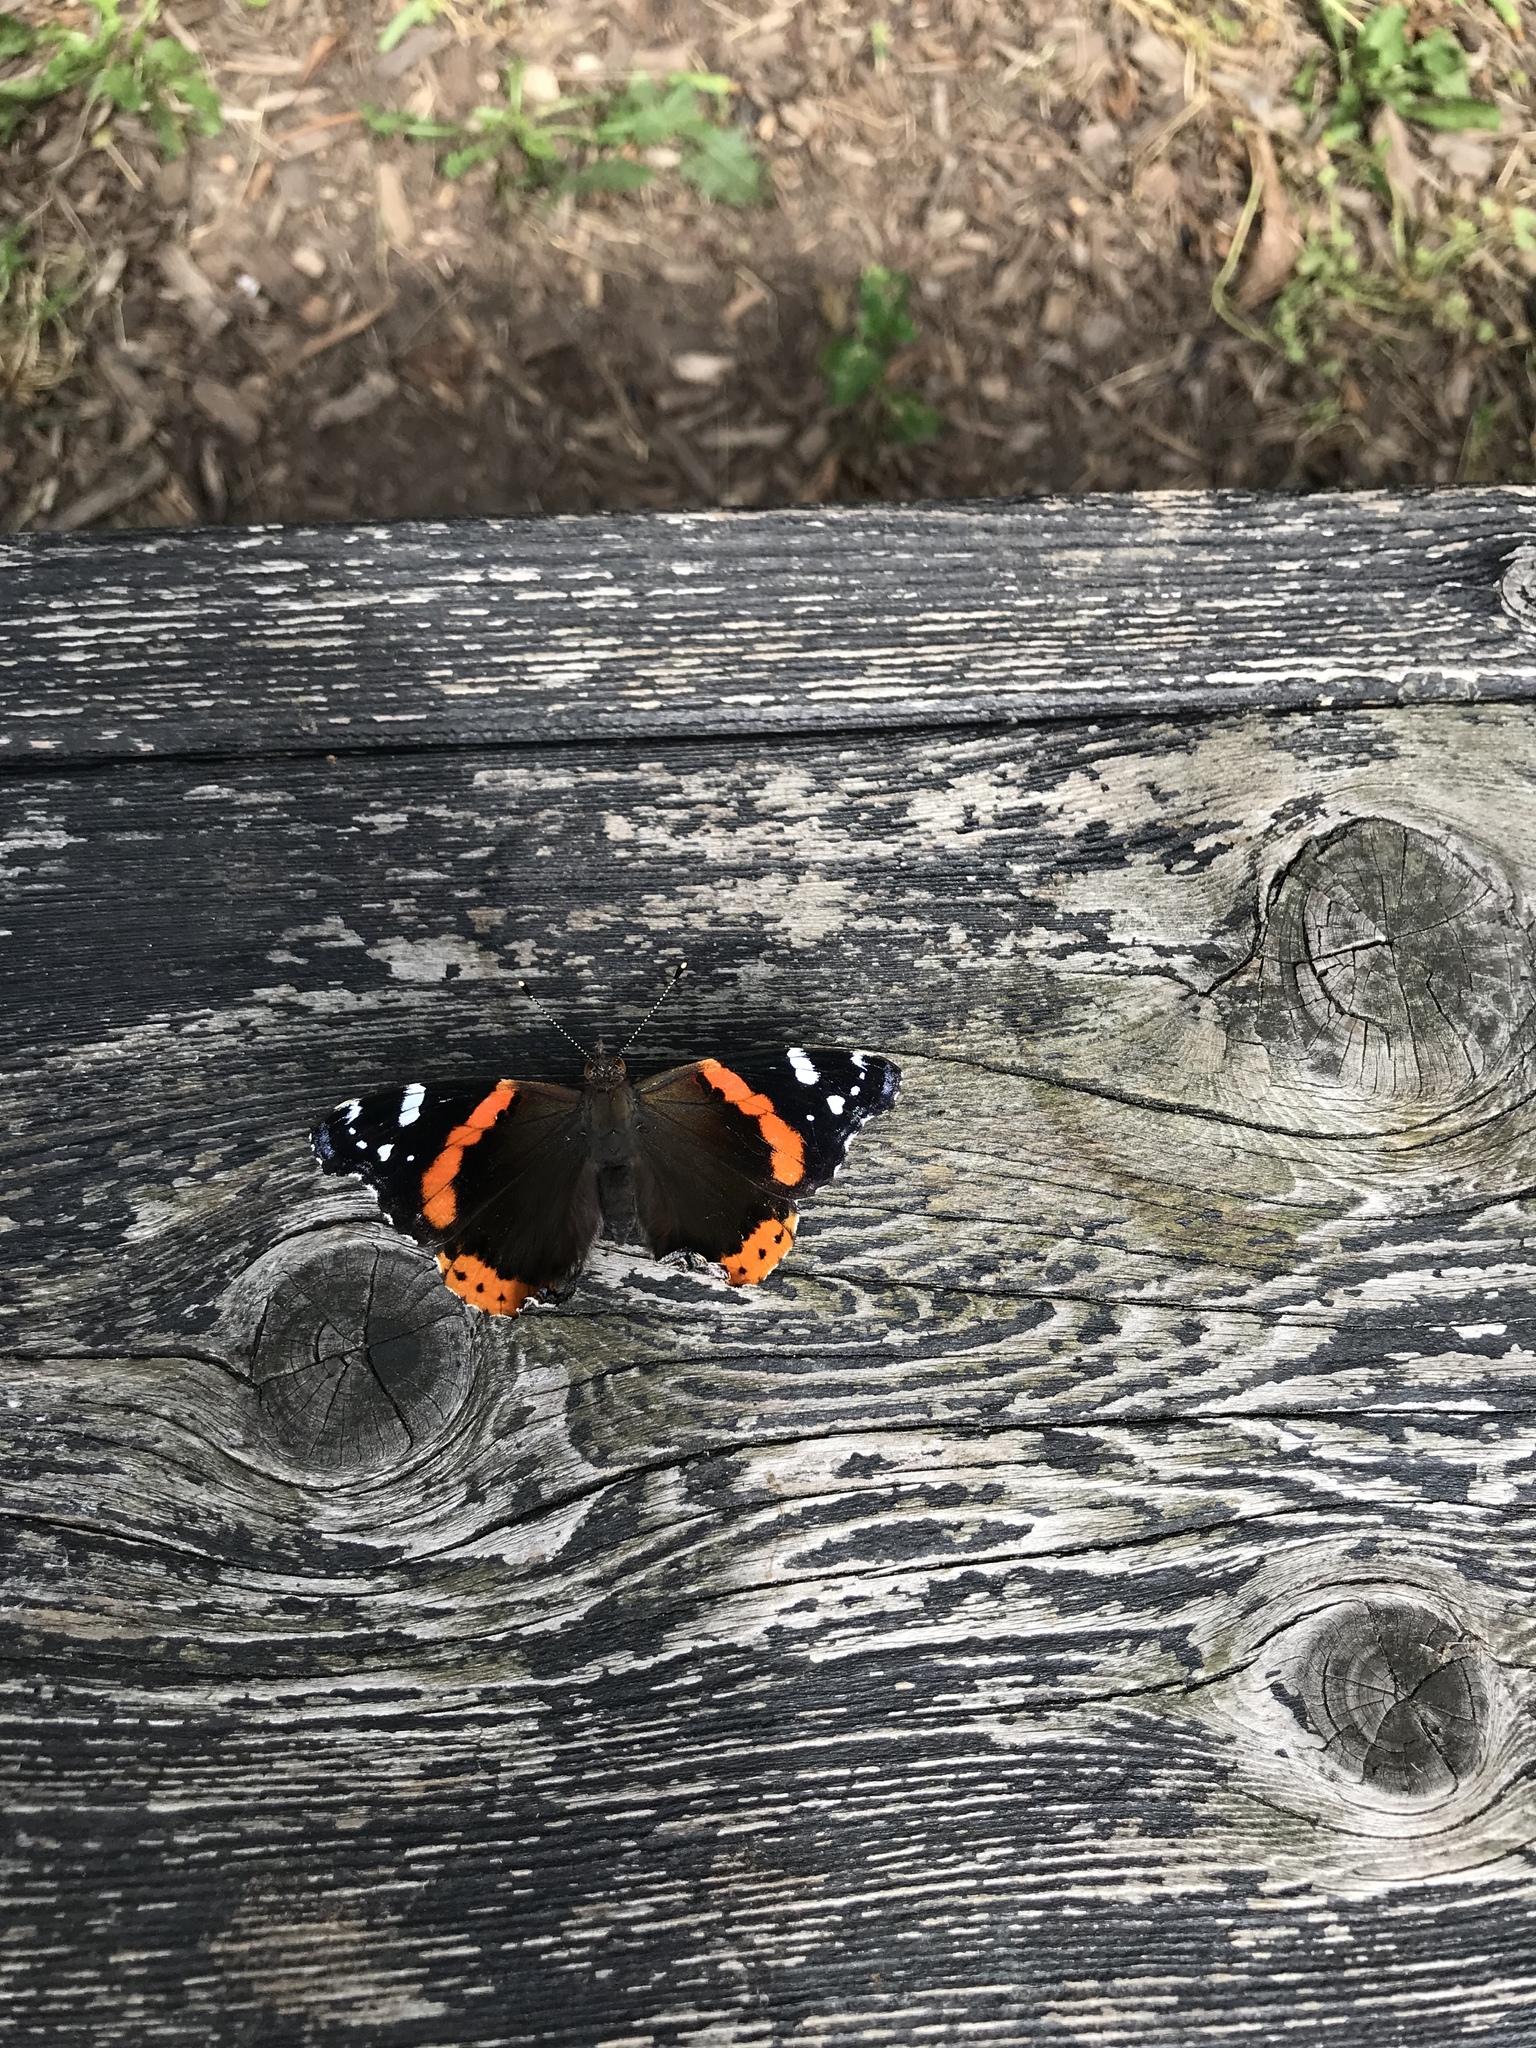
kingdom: Animalia
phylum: Arthropoda
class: Insecta
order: Lepidoptera
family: Nymphalidae
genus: Vanessa
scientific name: Vanessa atalanta
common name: Red admiral
